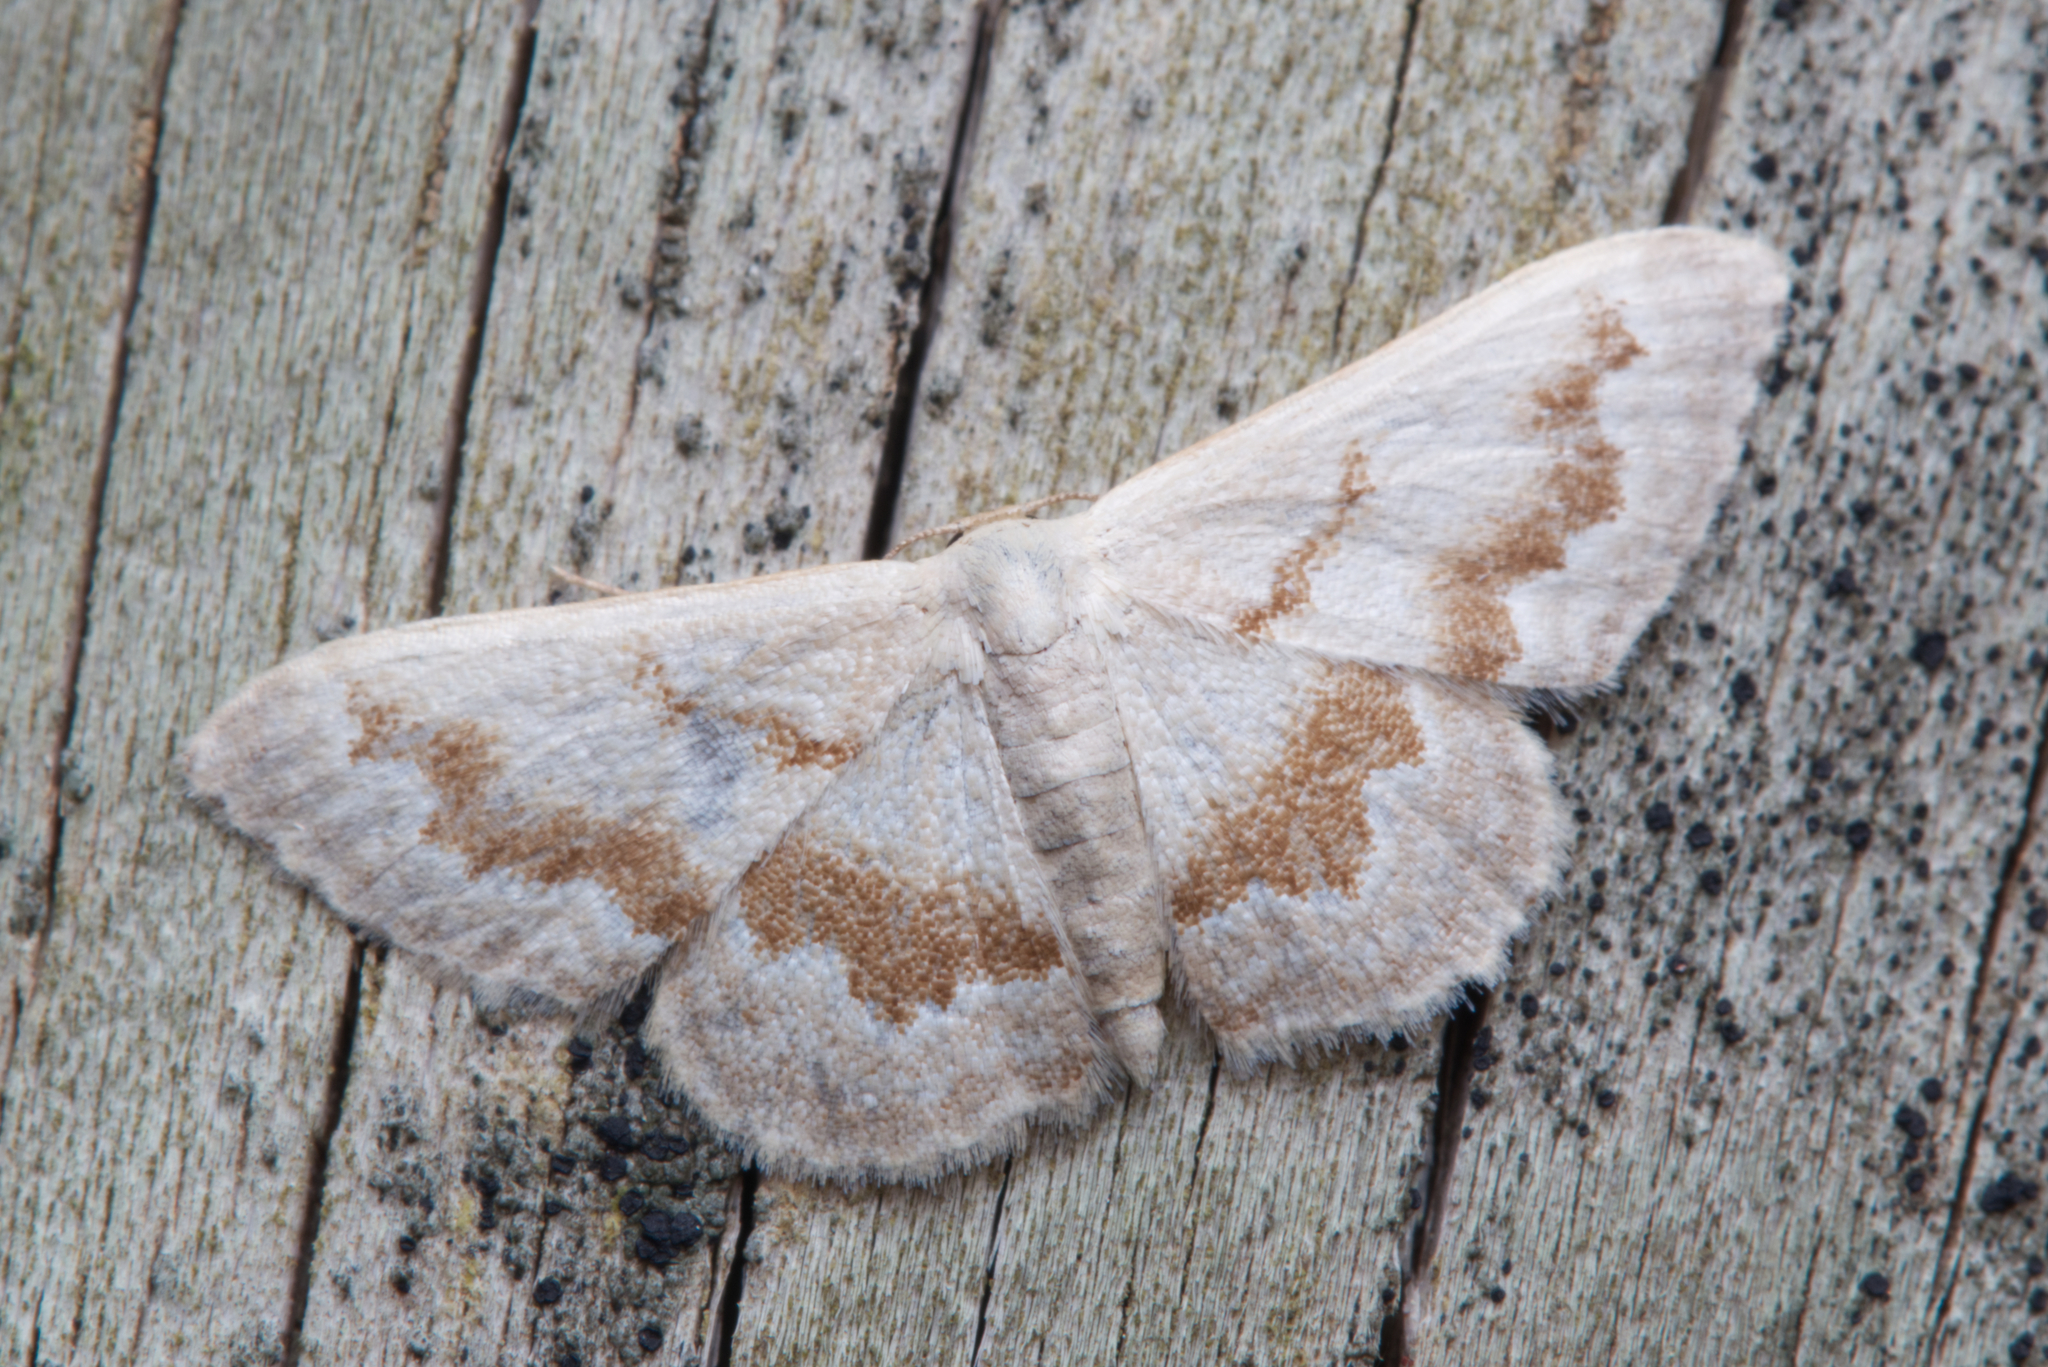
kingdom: Animalia
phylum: Arthropoda
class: Insecta
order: Lepidoptera
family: Geometridae
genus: Idaea
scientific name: Idaea iodesma
